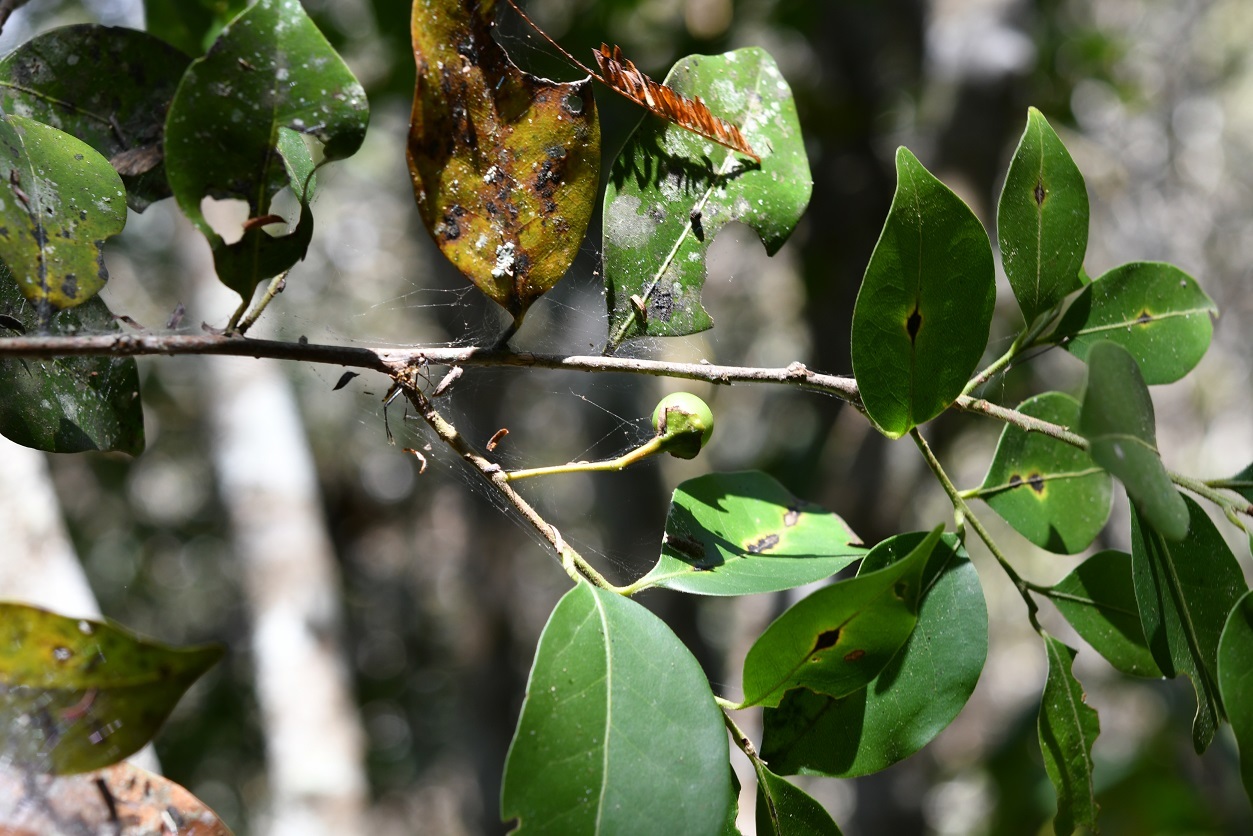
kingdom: Plantae
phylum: Tracheophyta
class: Magnoliopsida
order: Laurales
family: Lauraceae
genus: Licaria
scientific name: Licaria misantlae
